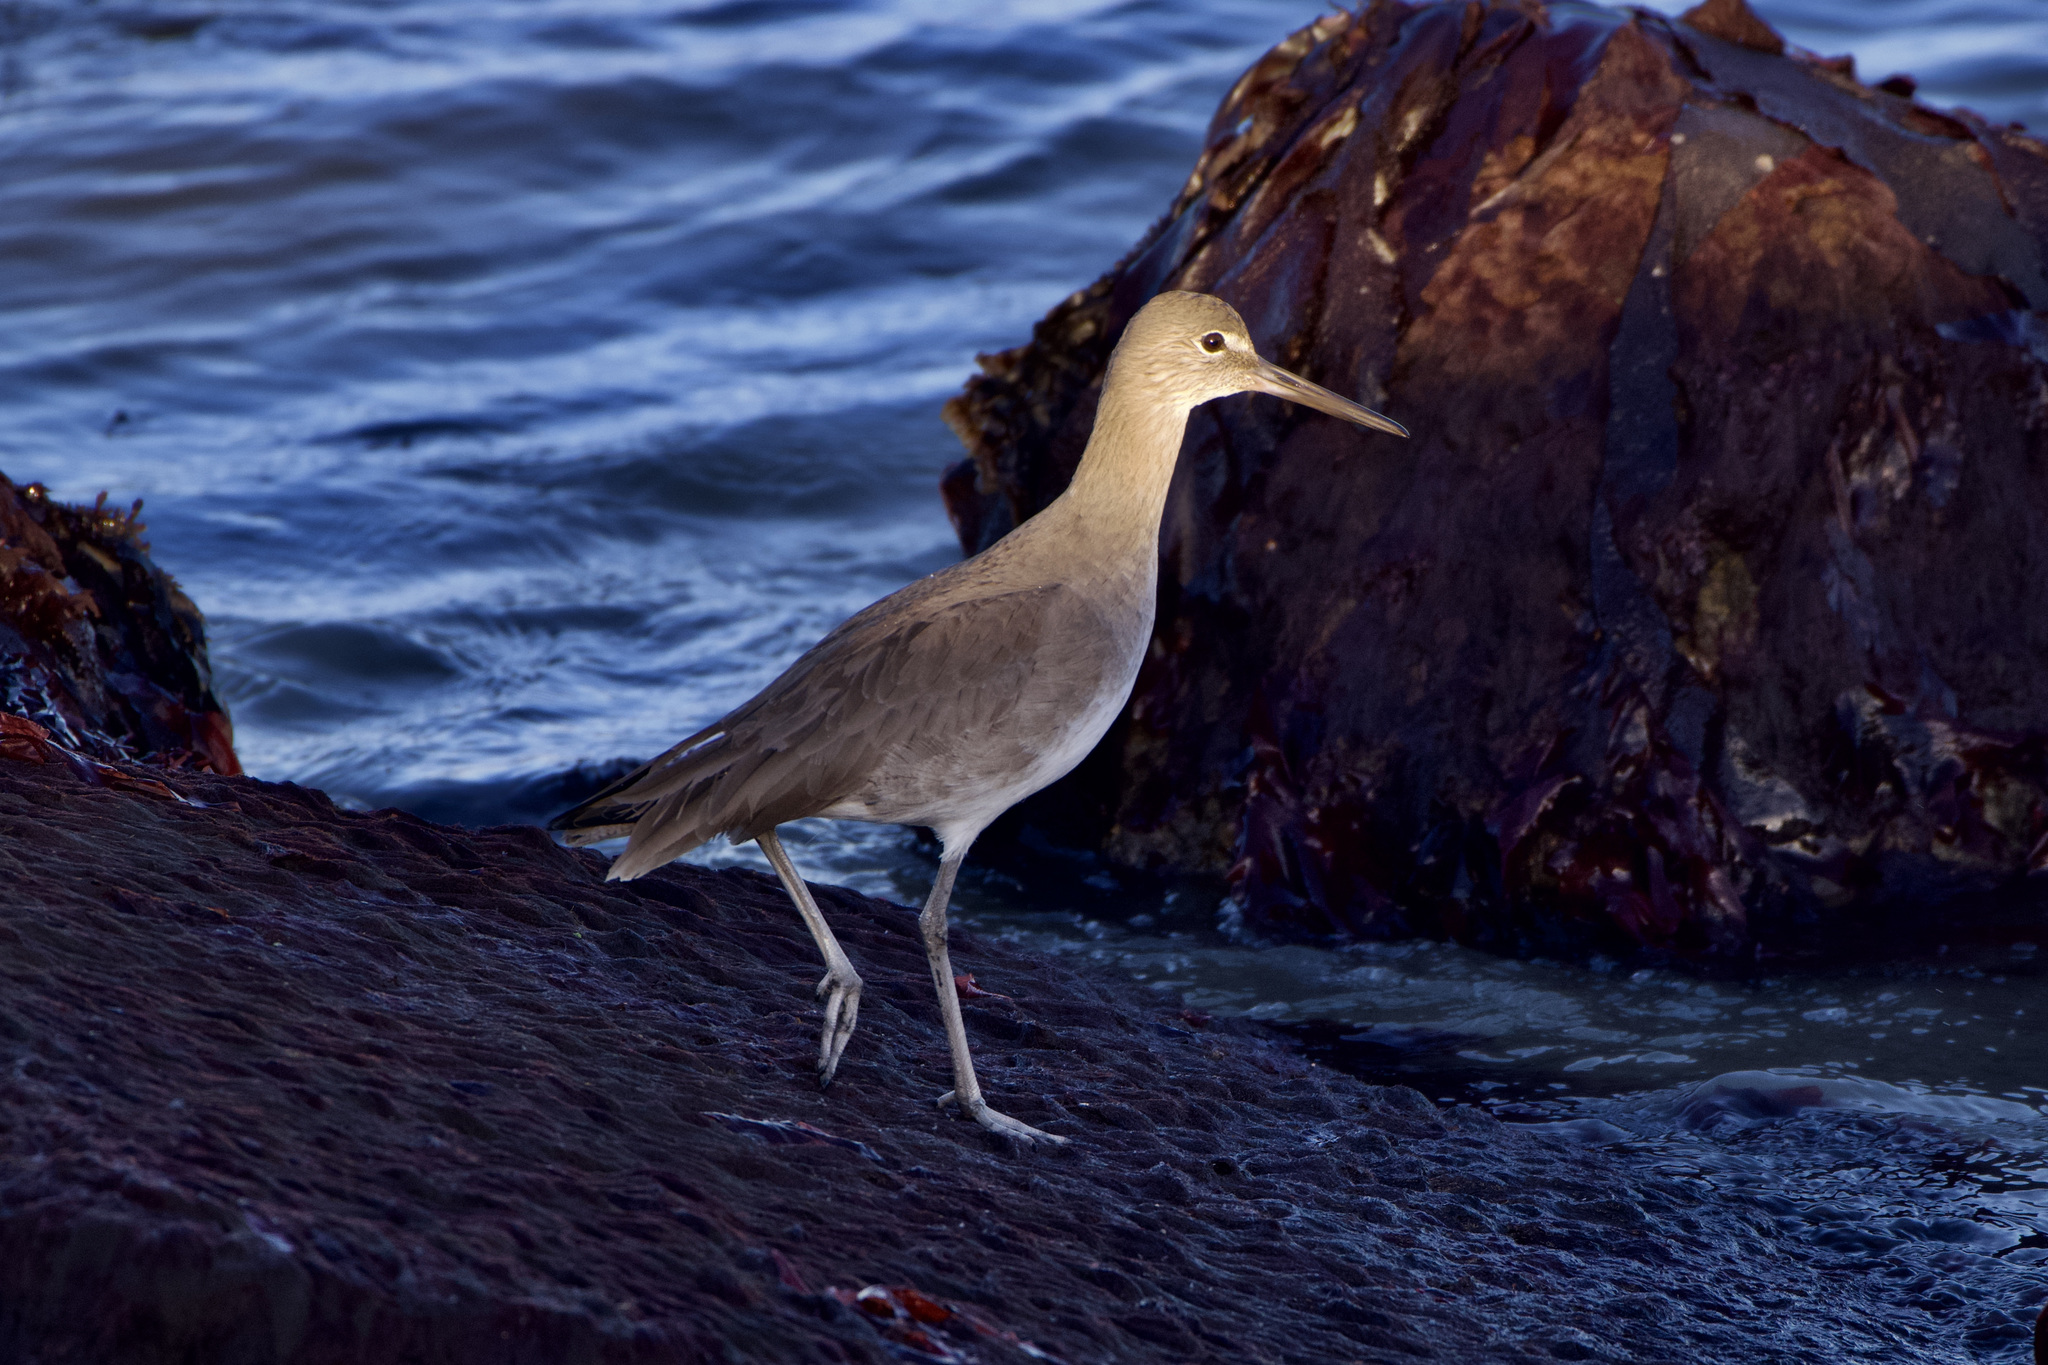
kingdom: Animalia
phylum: Chordata
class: Aves
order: Charadriiformes
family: Scolopacidae
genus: Tringa
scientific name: Tringa semipalmata
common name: Willet
